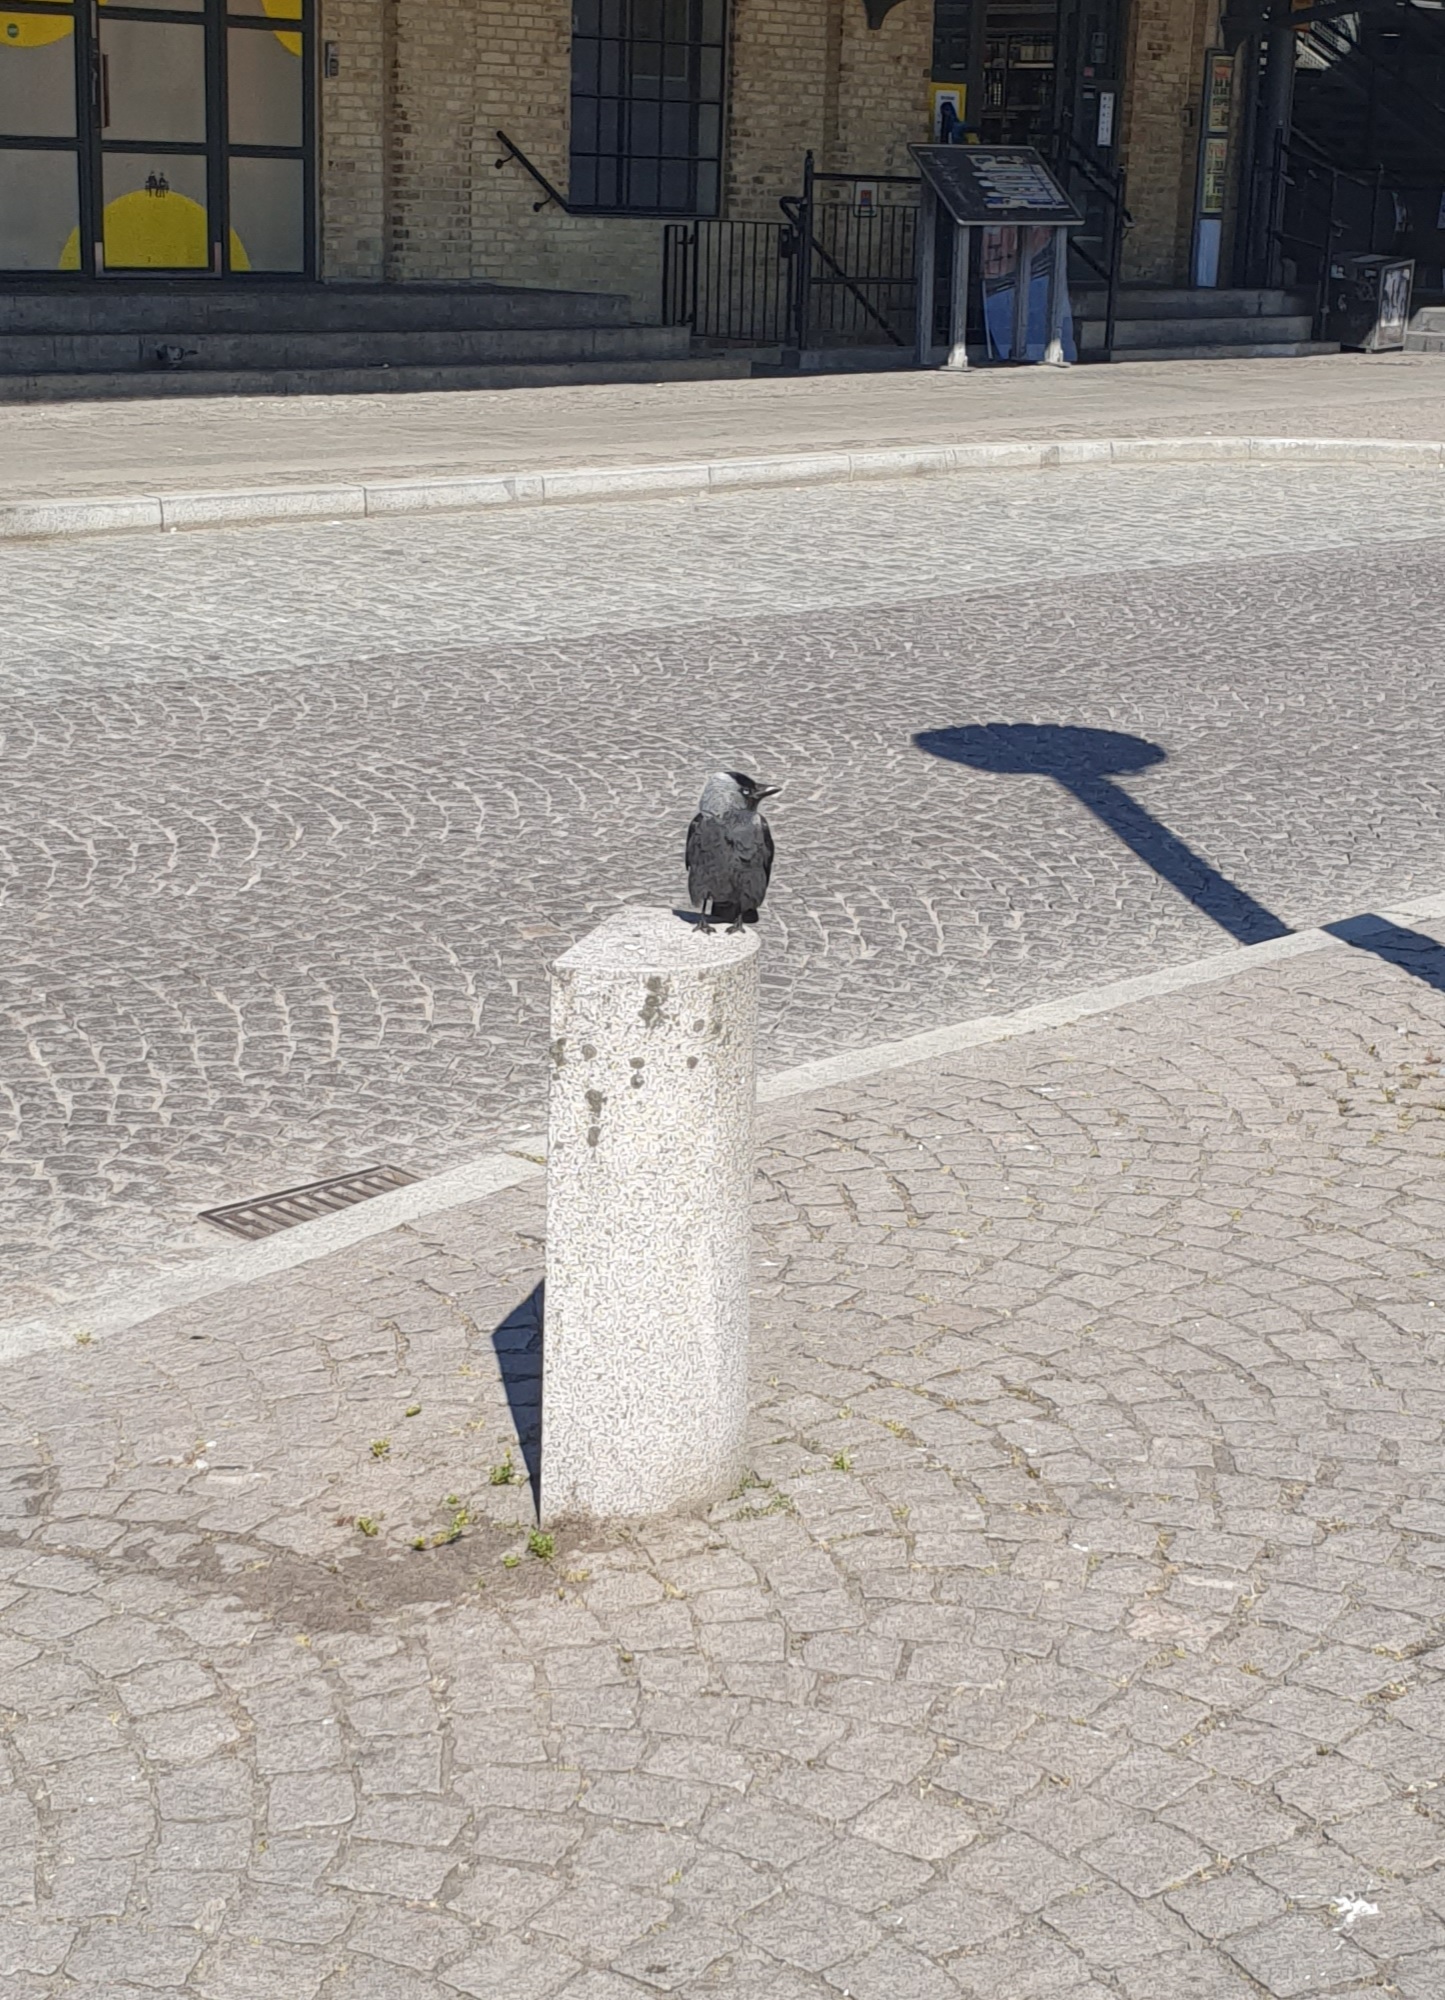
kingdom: Animalia
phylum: Chordata
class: Aves
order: Passeriformes
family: Corvidae
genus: Coloeus
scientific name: Coloeus monedula
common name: Western jackdaw
